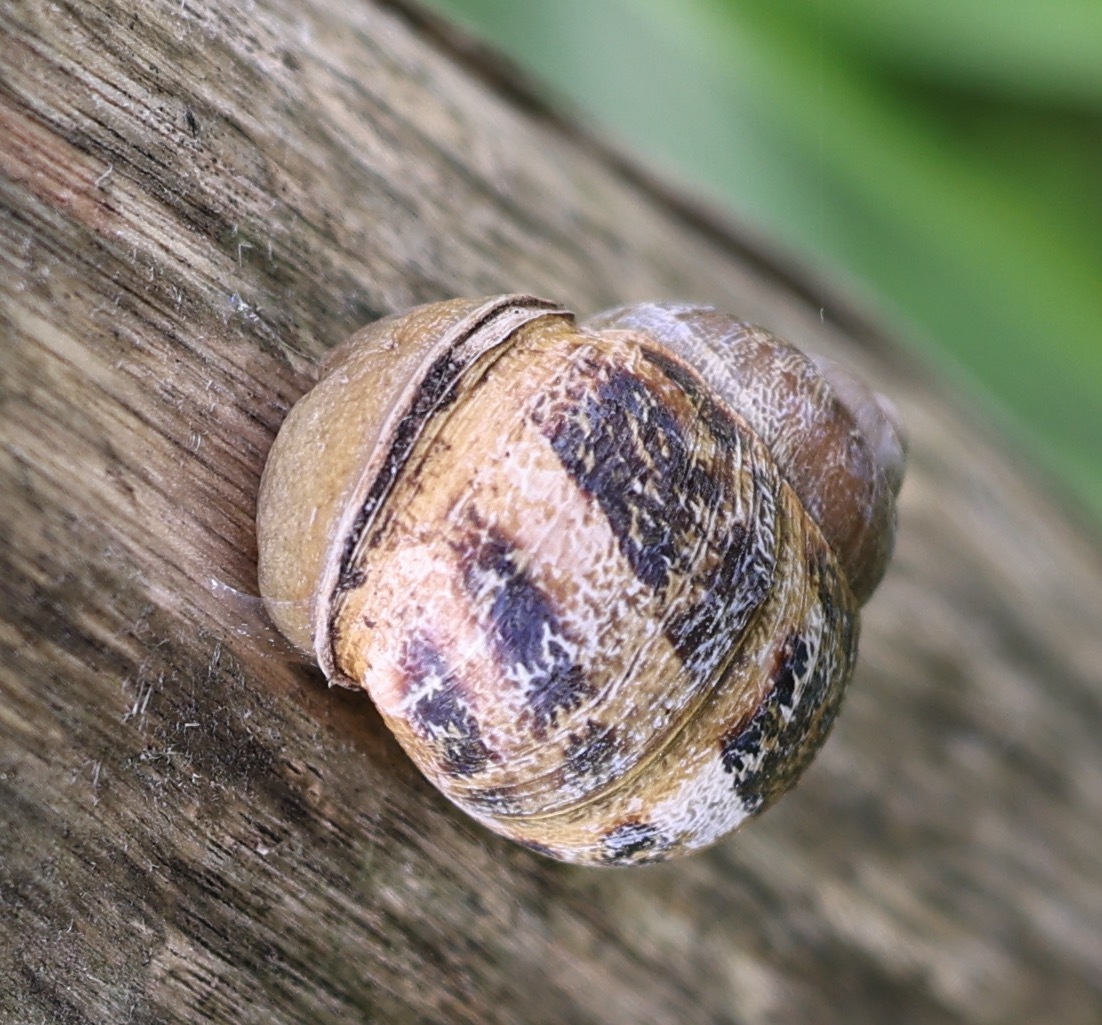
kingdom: Animalia
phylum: Mollusca
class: Gastropoda
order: Stylommatophora
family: Helicidae
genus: Cornu
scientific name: Cornu aspersum
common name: Brown garden snail
